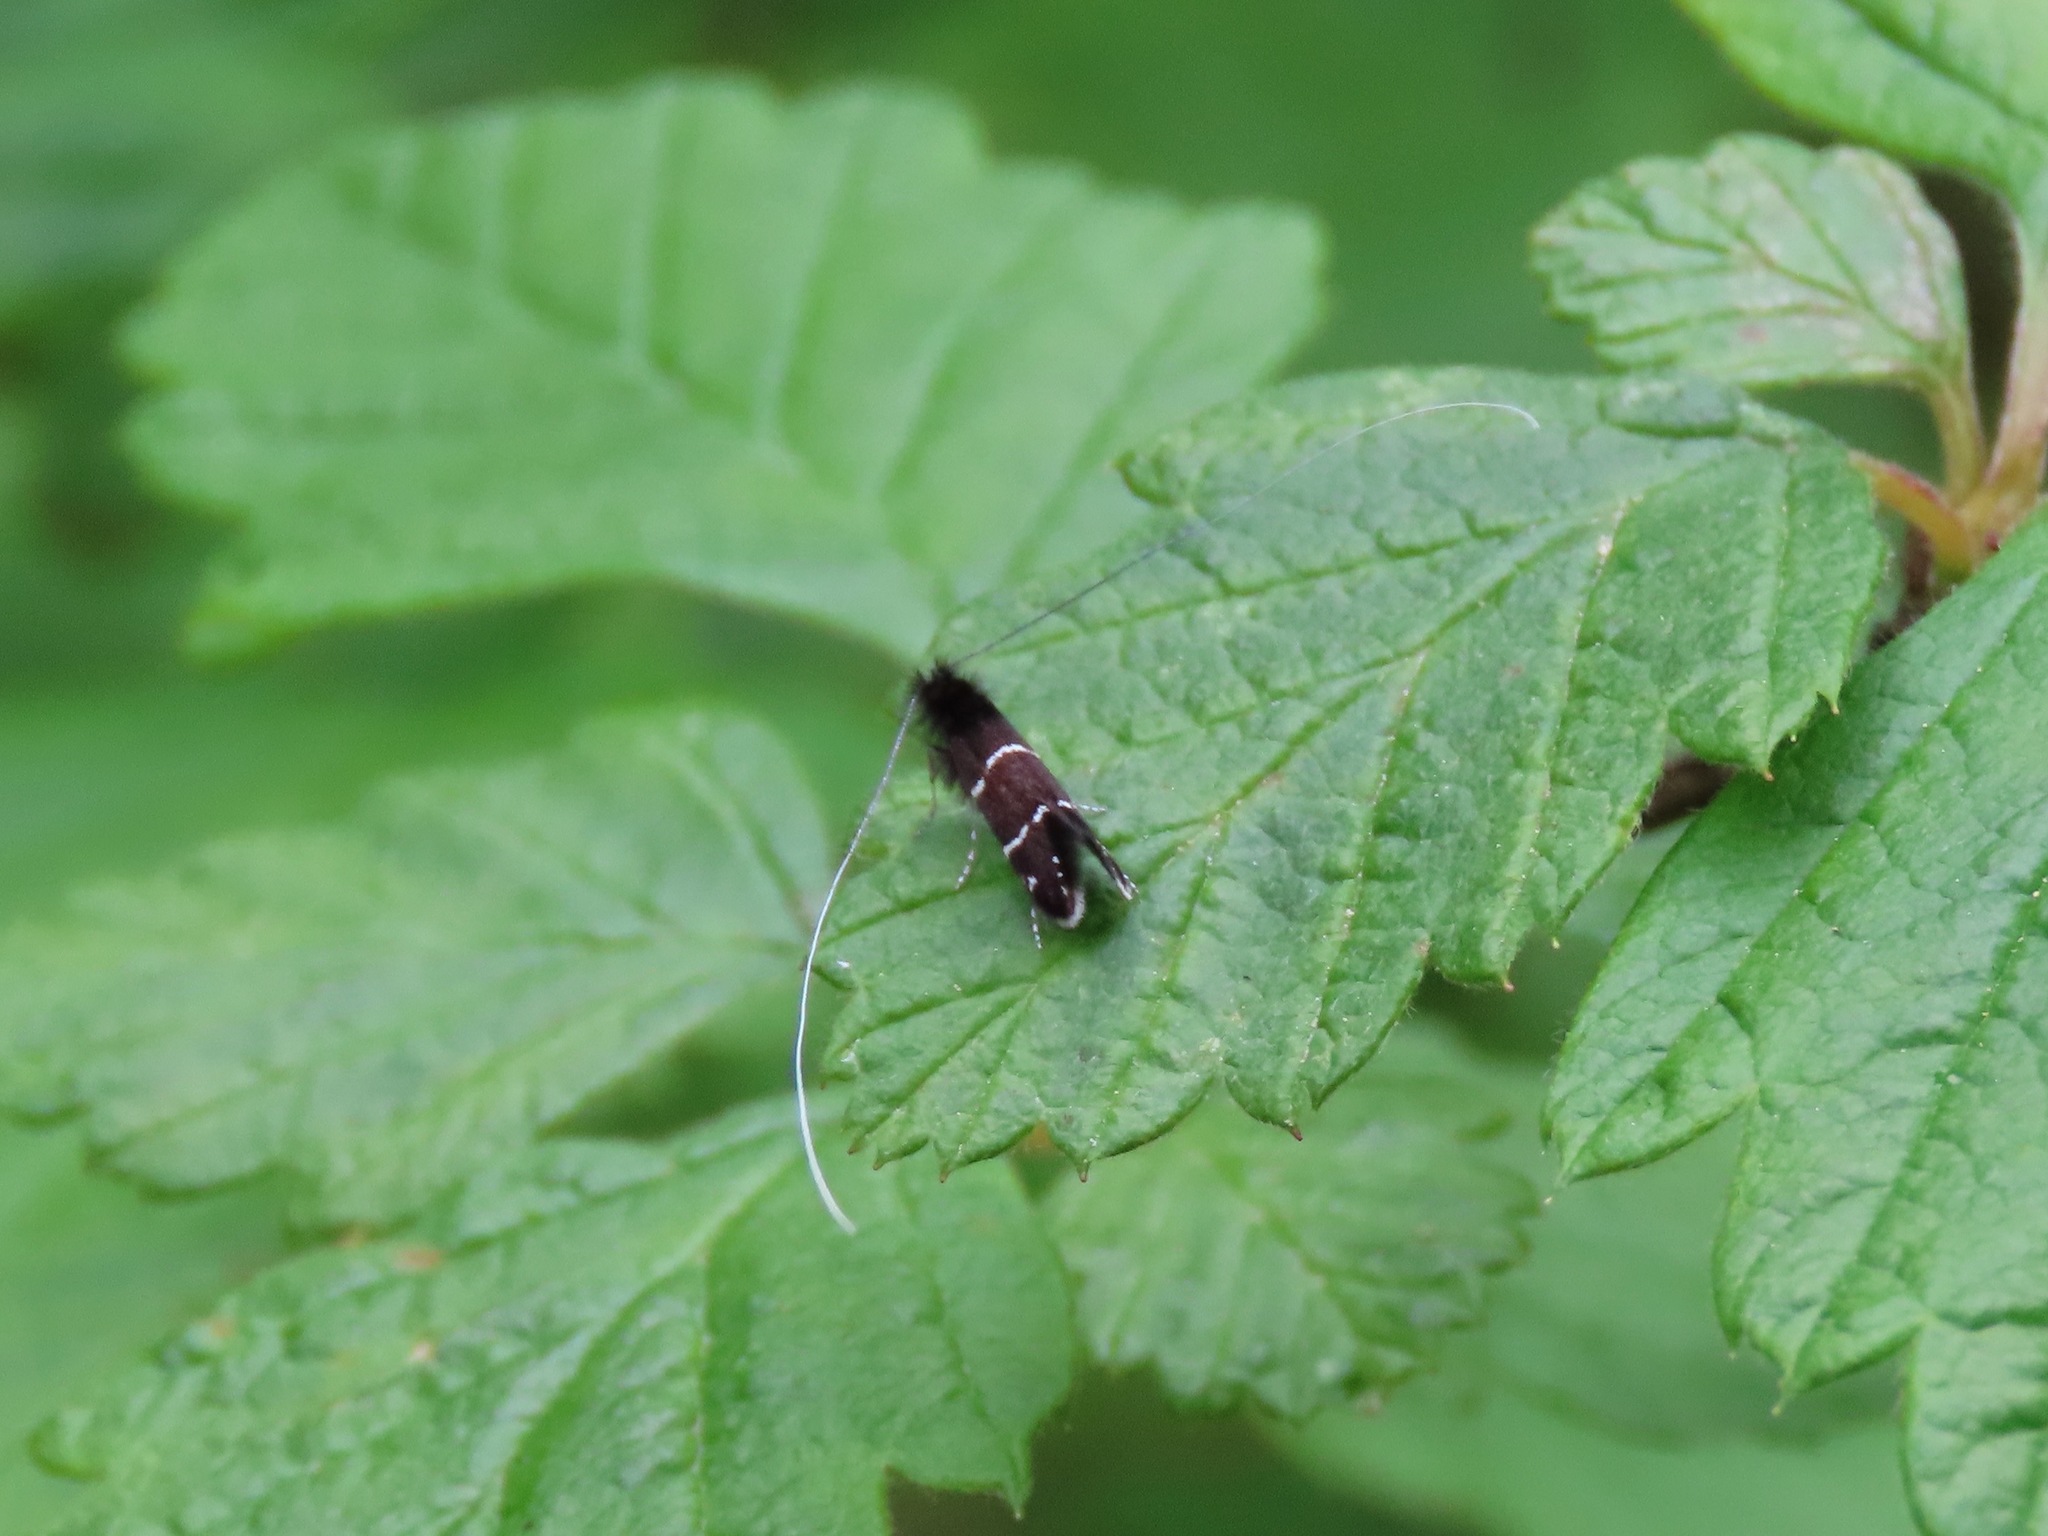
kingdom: Animalia
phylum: Arthropoda
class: Insecta
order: Lepidoptera
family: Adelidae
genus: Adela
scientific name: Adela septentrionella
